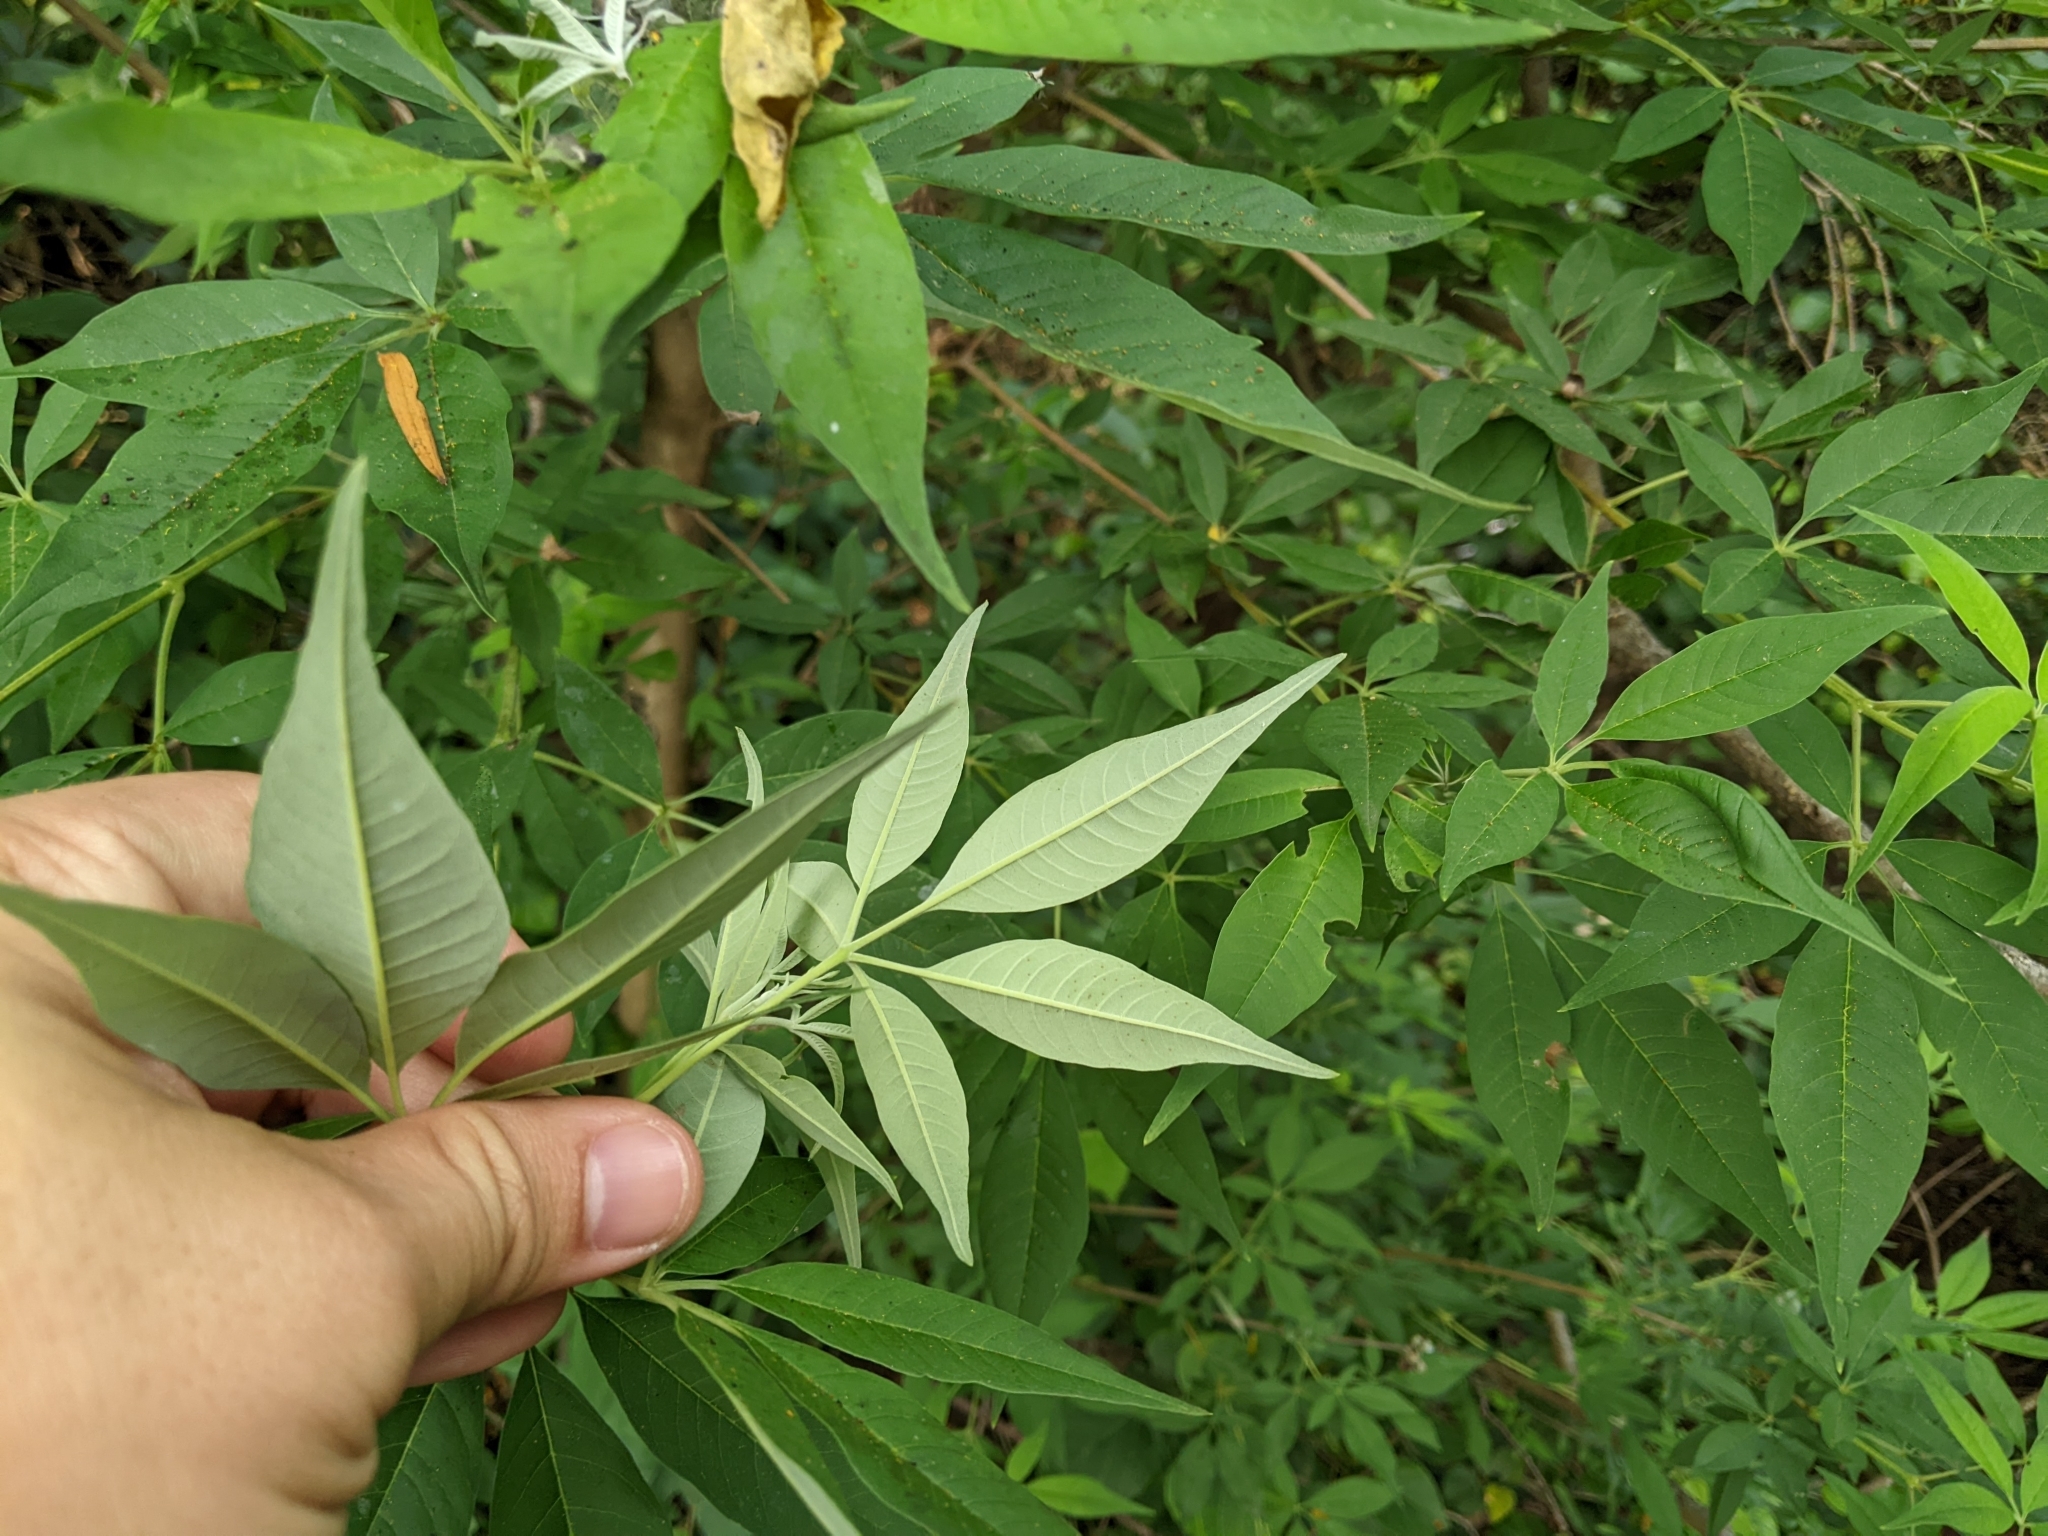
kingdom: Plantae
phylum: Tracheophyta
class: Magnoliopsida
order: Lamiales
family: Lamiaceae
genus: Vitex
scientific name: Vitex negundo
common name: Chinese chastetree
